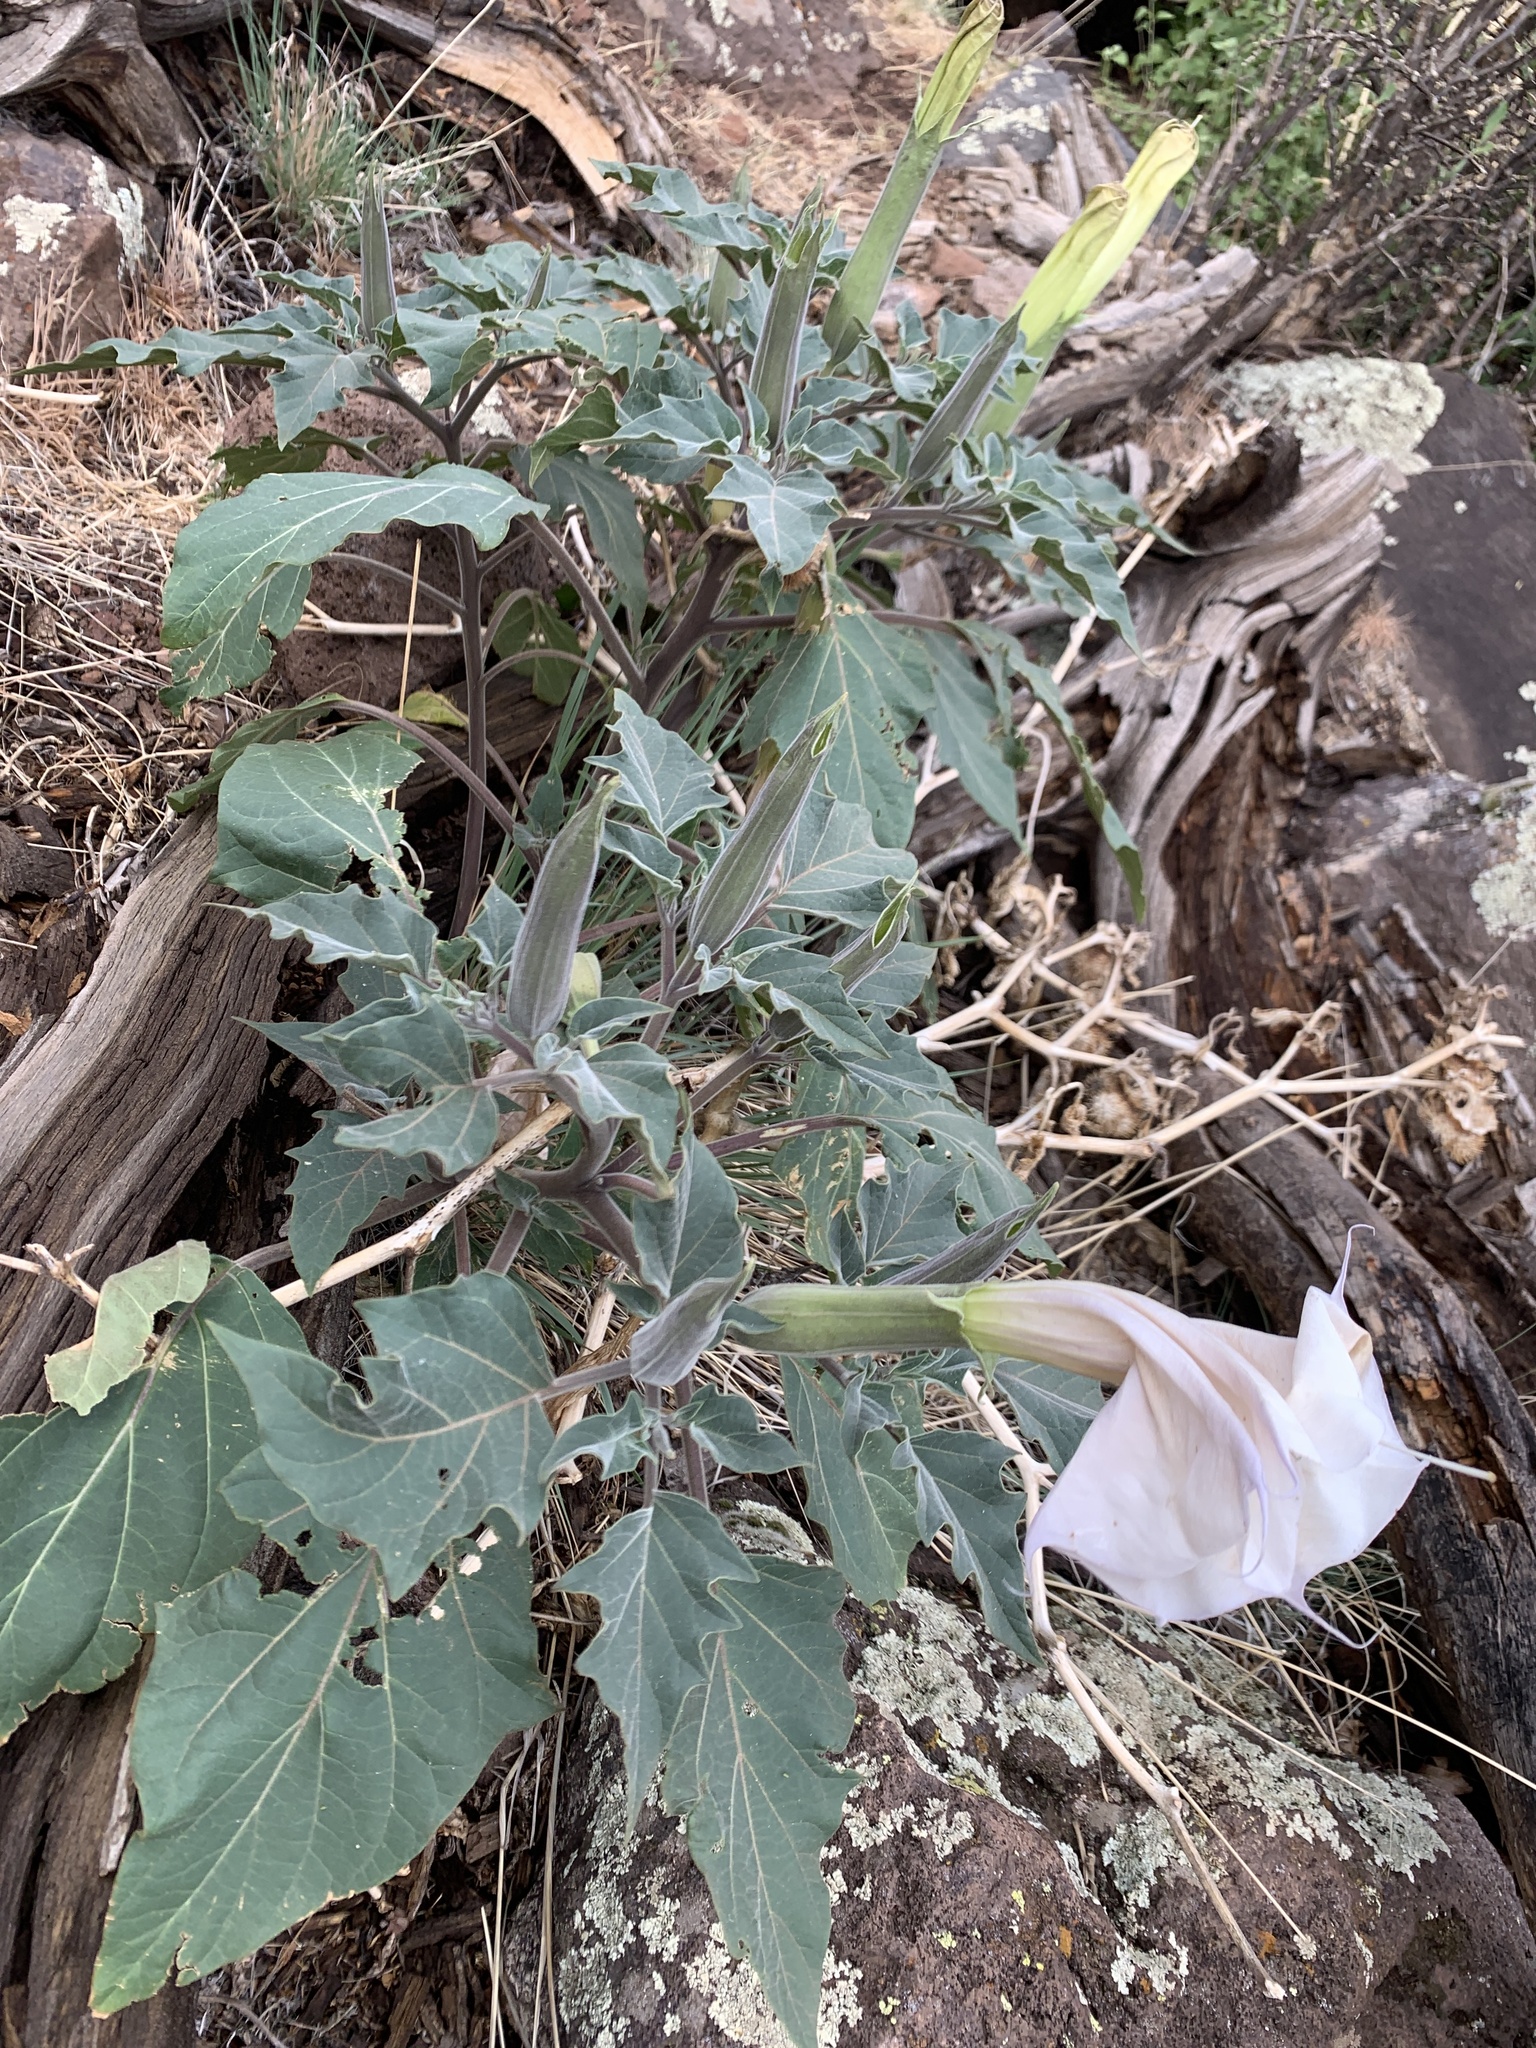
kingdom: Plantae
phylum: Tracheophyta
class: Magnoliopsida
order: Solanales
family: Solanaceae
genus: Datura
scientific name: Datura wrightii
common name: Sacred thorn-apple
